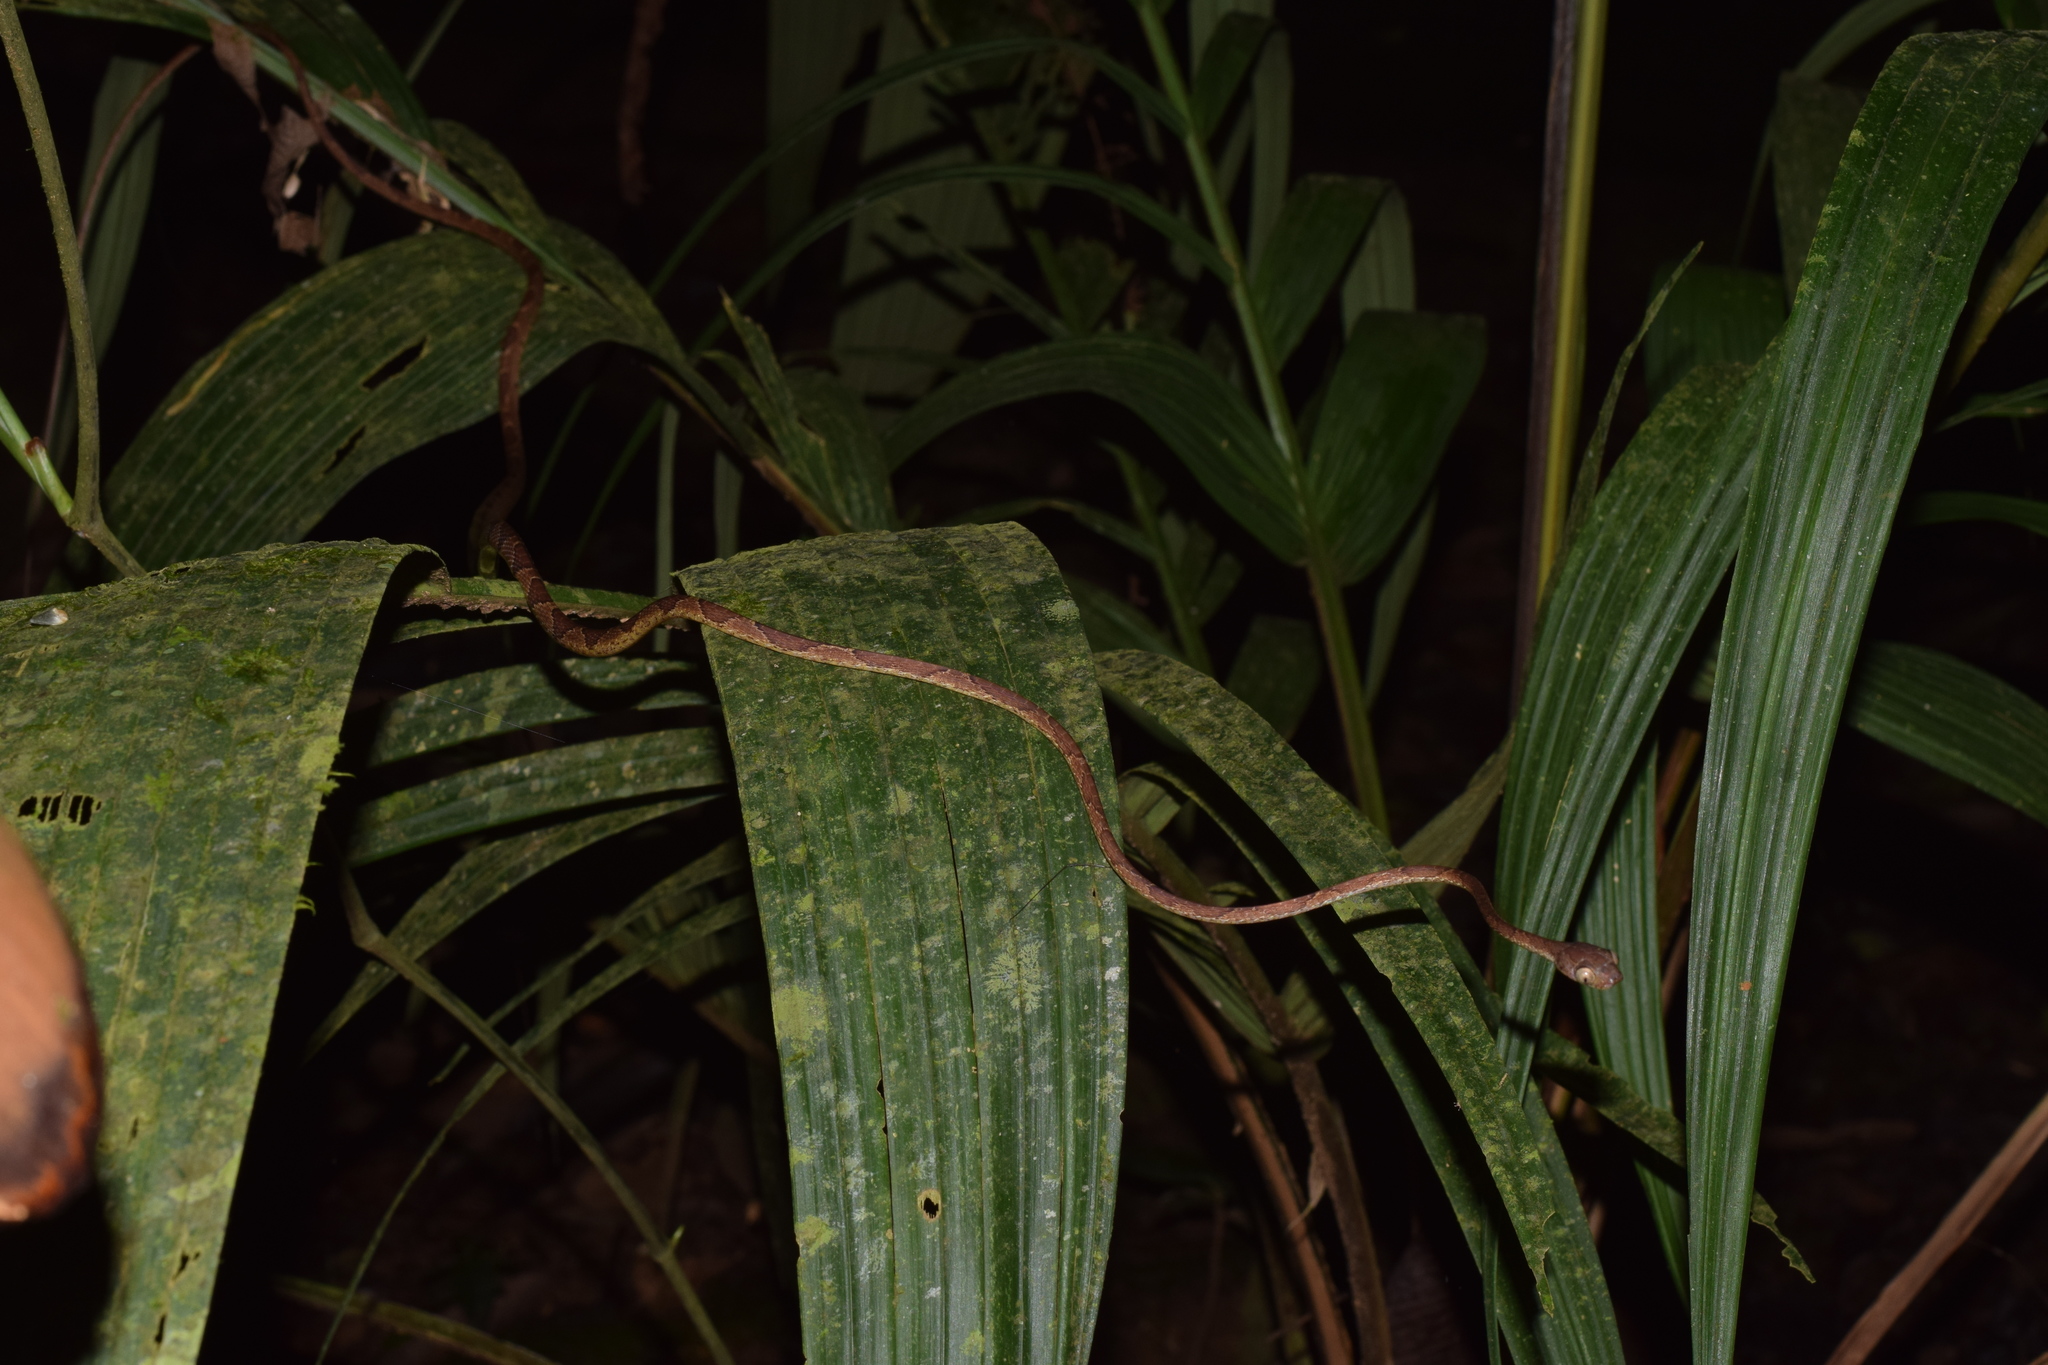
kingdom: Animalia
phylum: Chordata
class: Squamata
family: Colubridae
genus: Imantodes
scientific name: Imantodes cenchoa
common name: Blunthead tree snake
